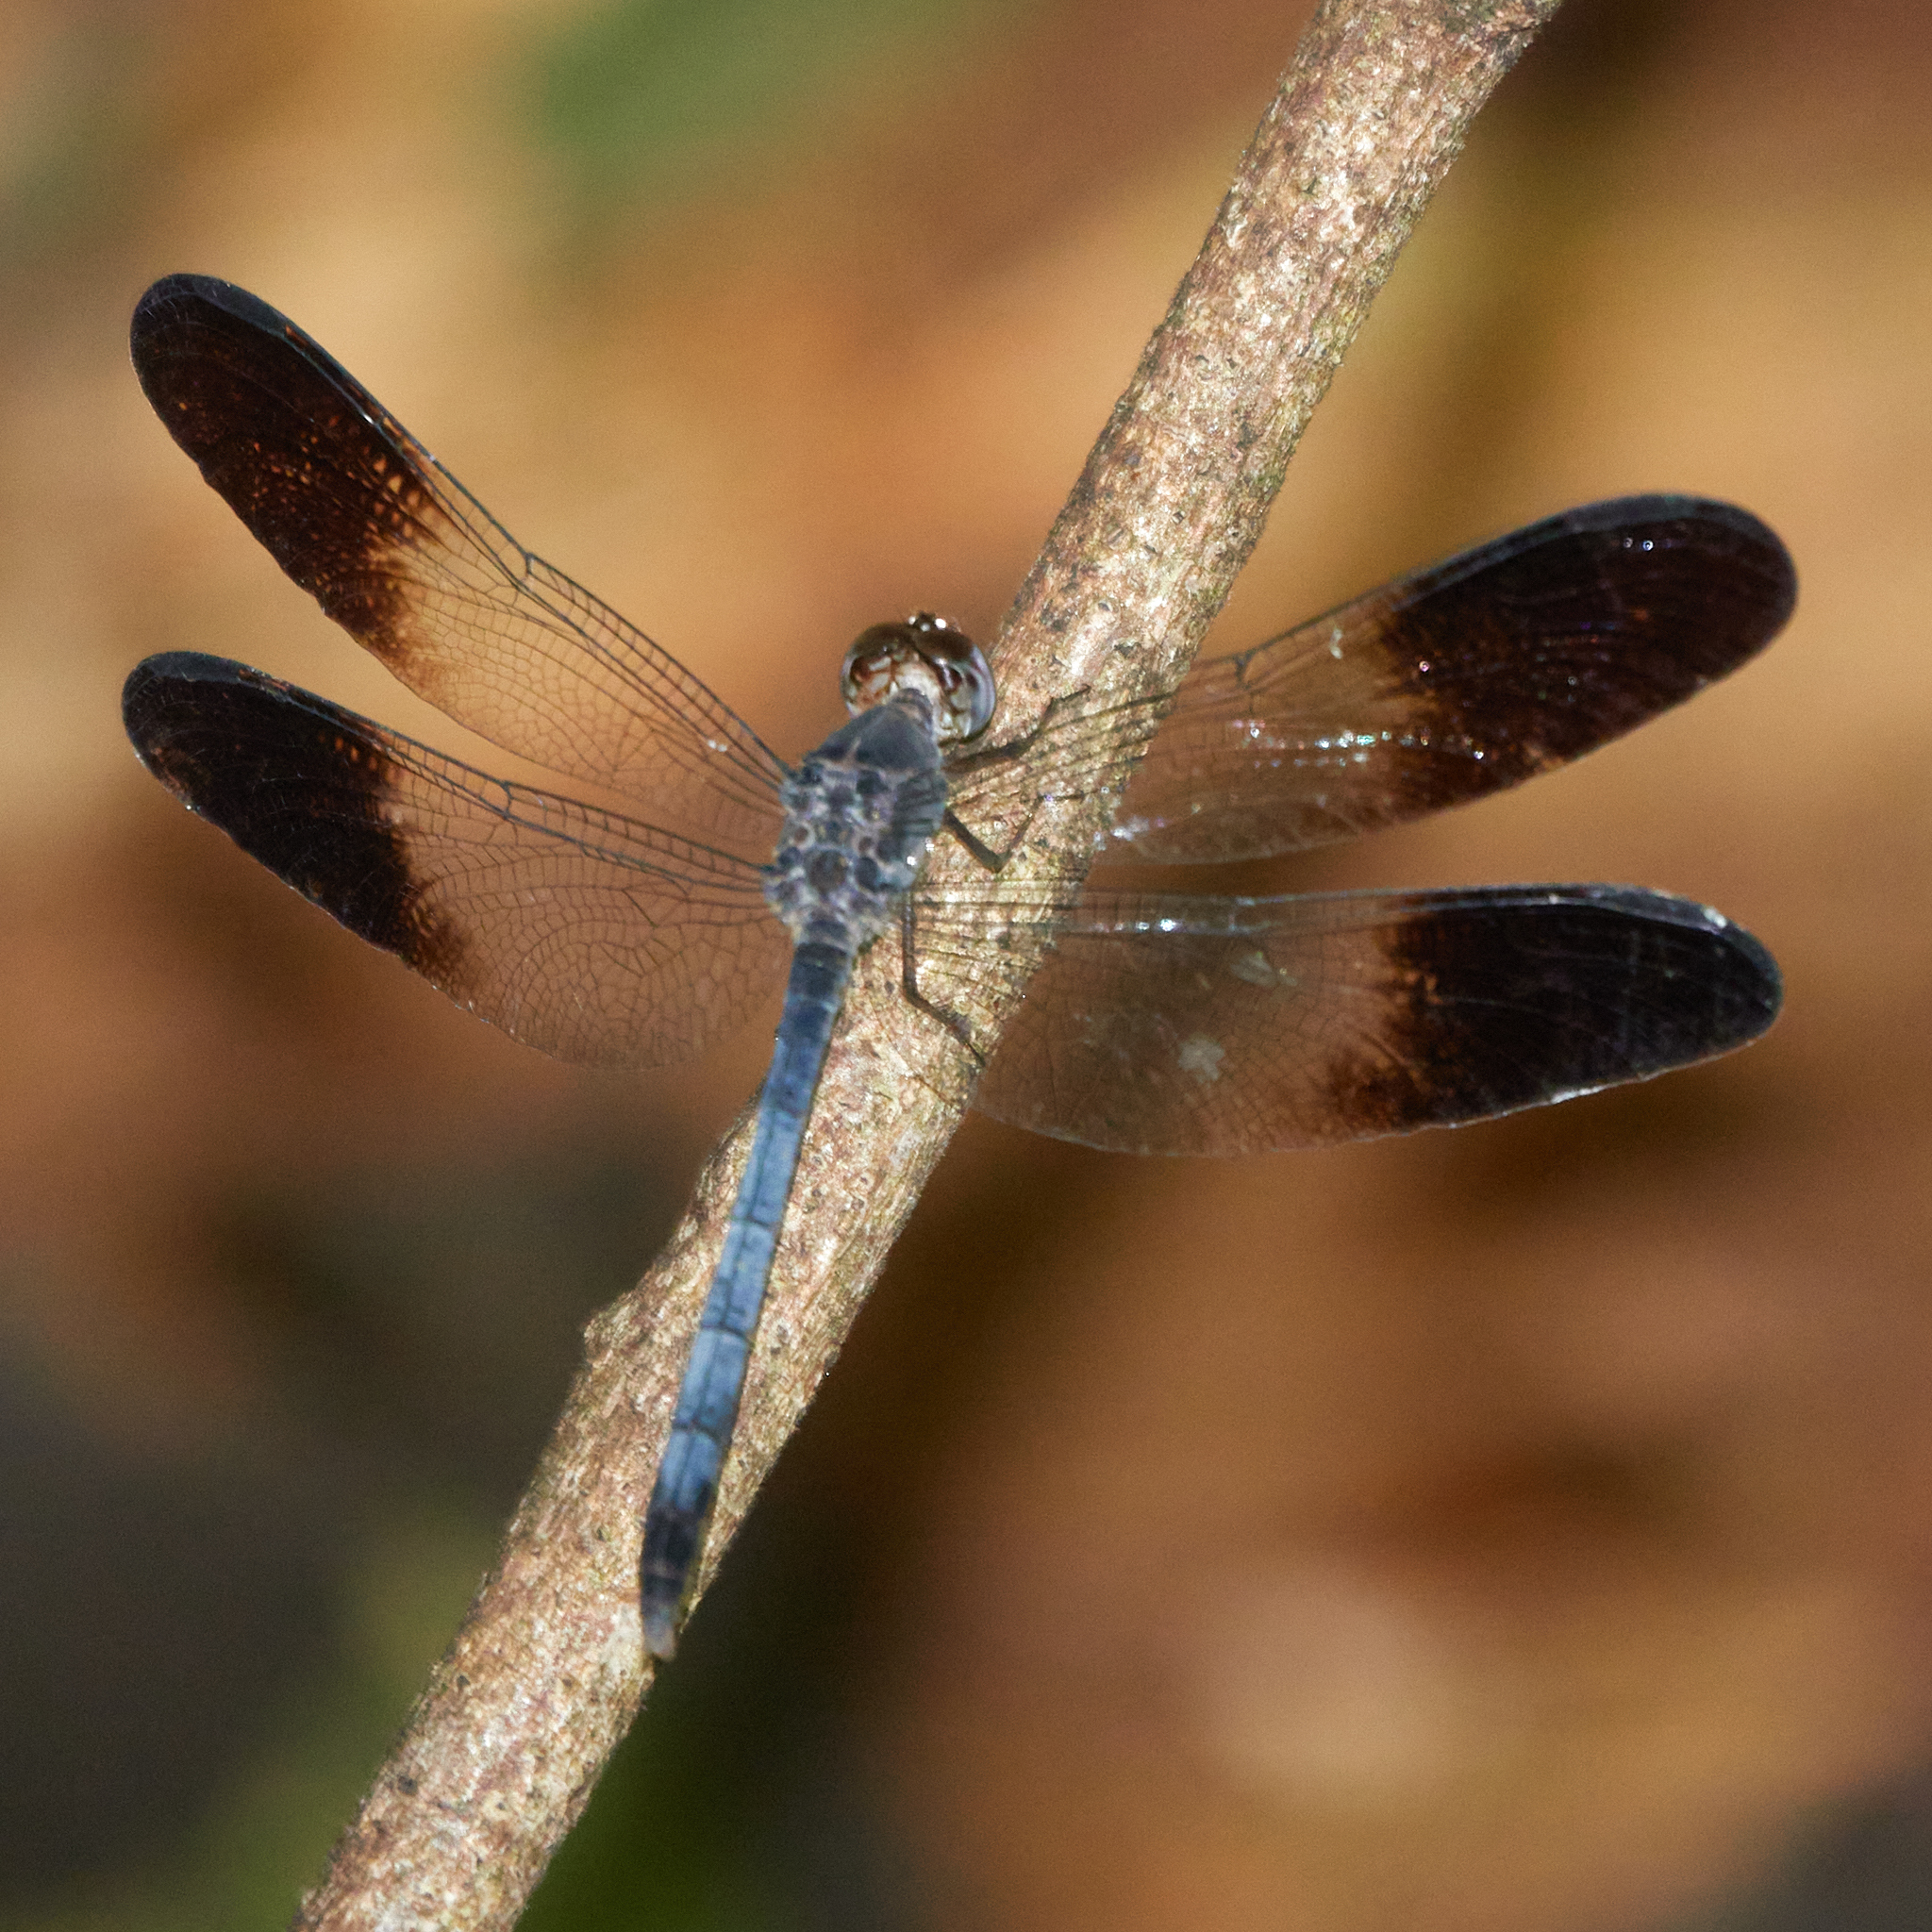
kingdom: Animalia
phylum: Arthropoda
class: Insecta
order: Odonata
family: Libellulidae
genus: Uracis
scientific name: Uracis fastigiata
